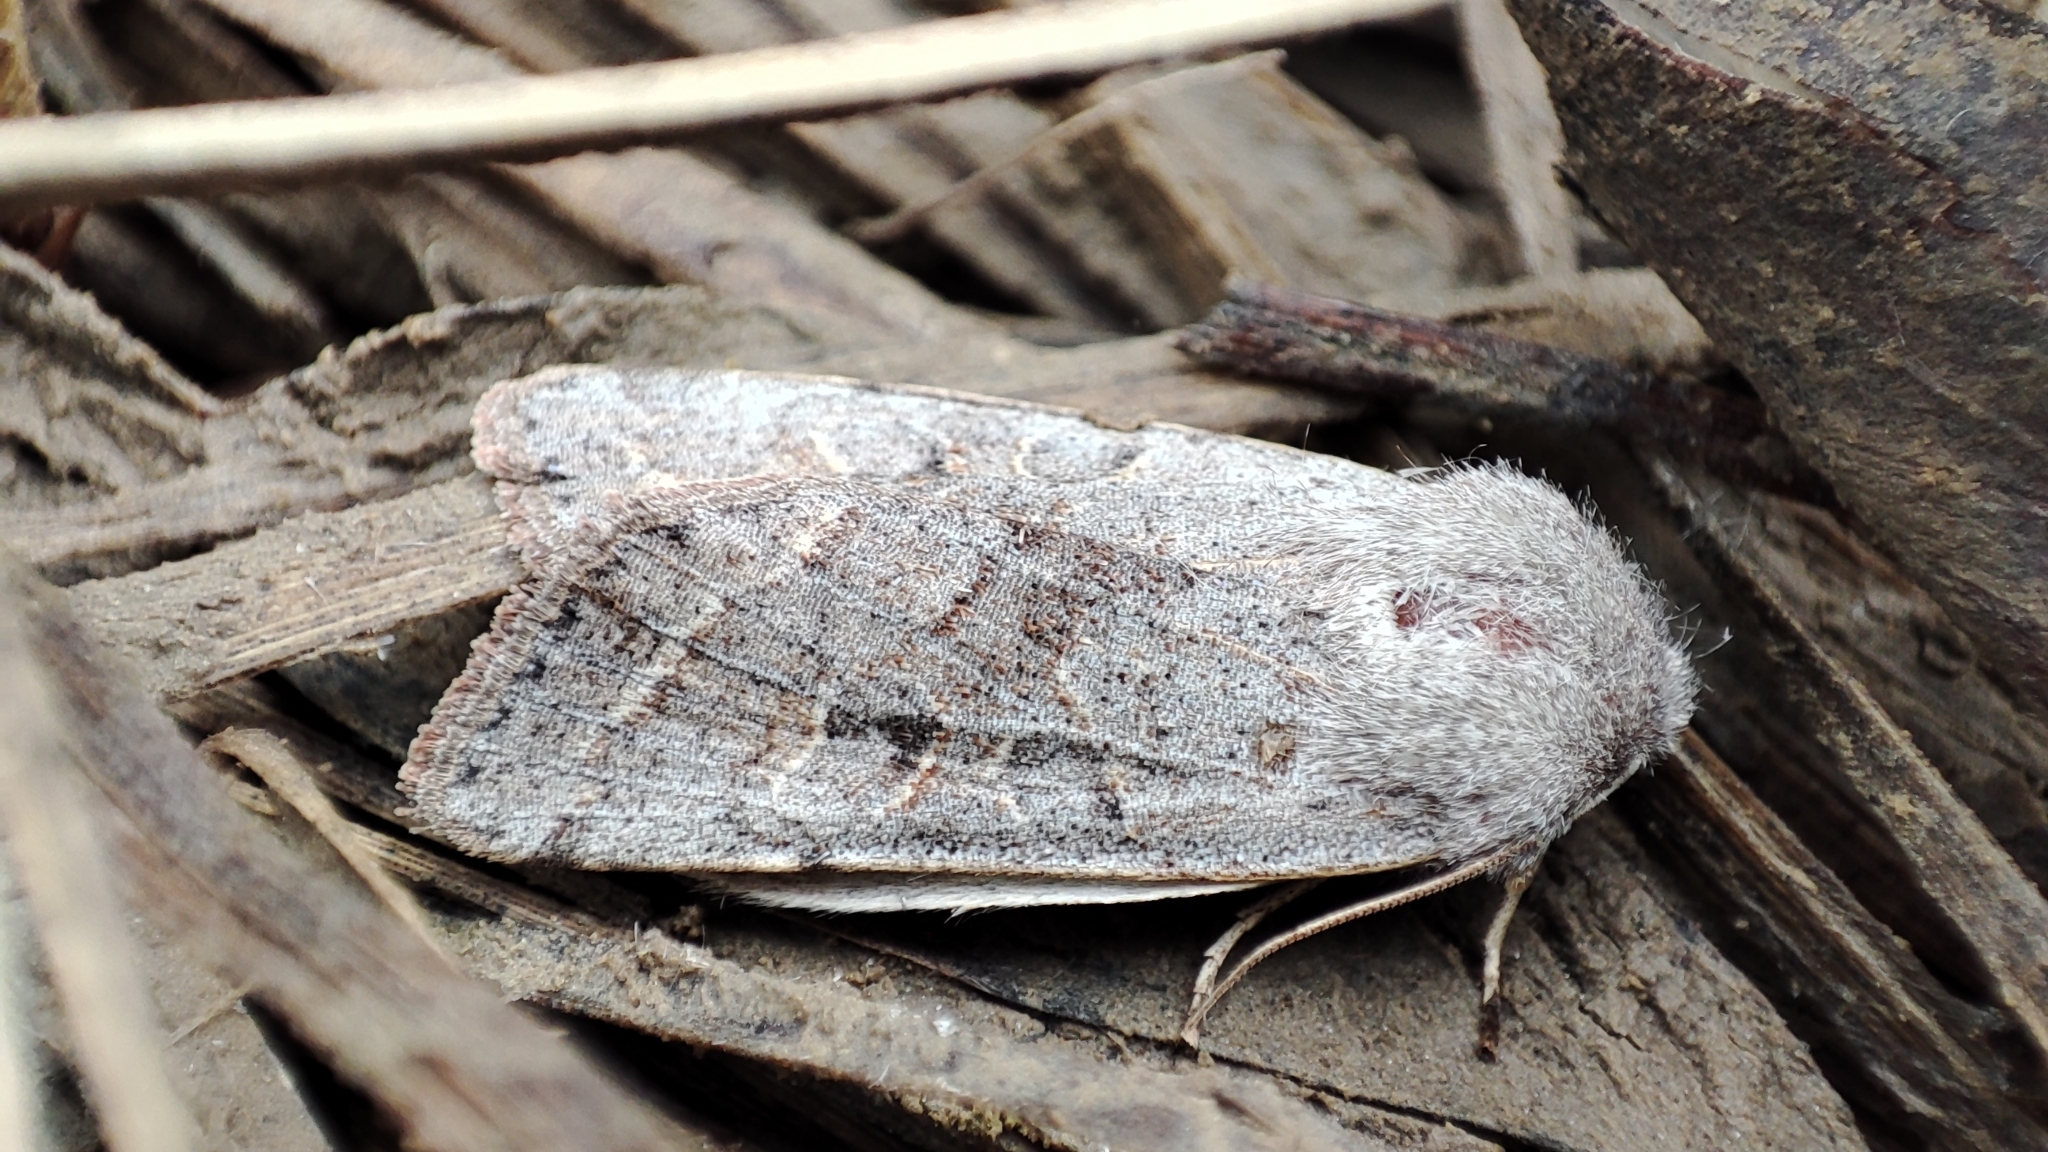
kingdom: Animalia
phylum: Arthropoda
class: Insecta
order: Lepidoptera
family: Noctuidae
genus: Orthosia
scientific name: Orthosia opima
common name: Northern drab
